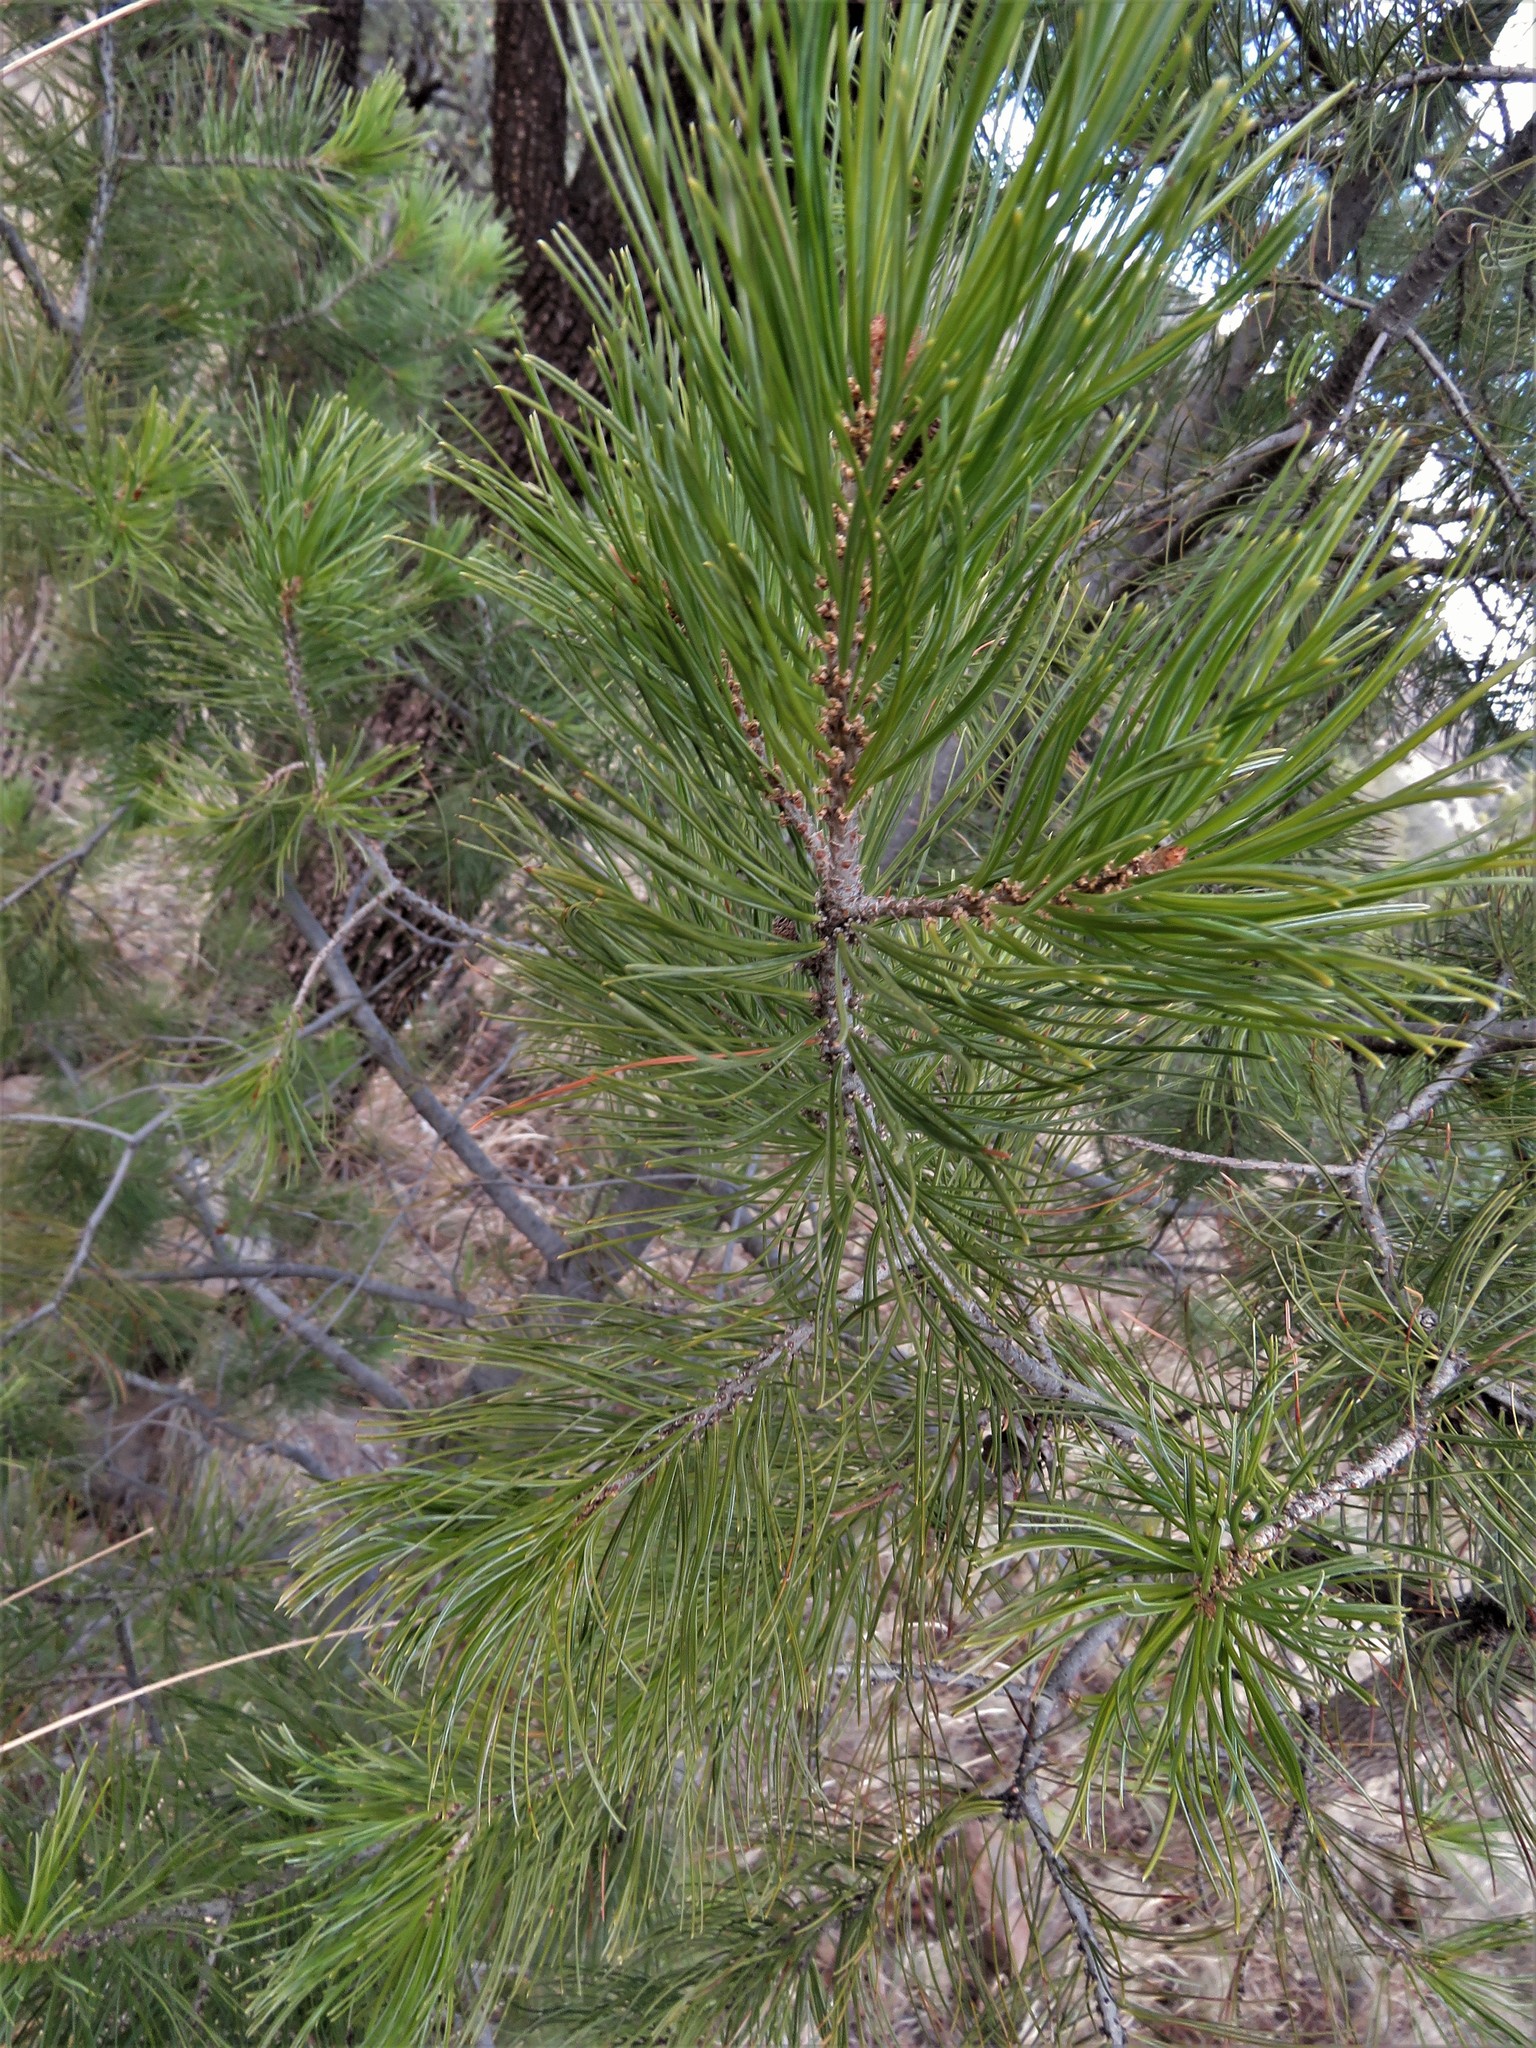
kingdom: Plantae
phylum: Tracheophyta
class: Pinopsida
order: Pinales
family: Pinaceae
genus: Pinus
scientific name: Pinus cembroides
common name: Mexican nut pine
